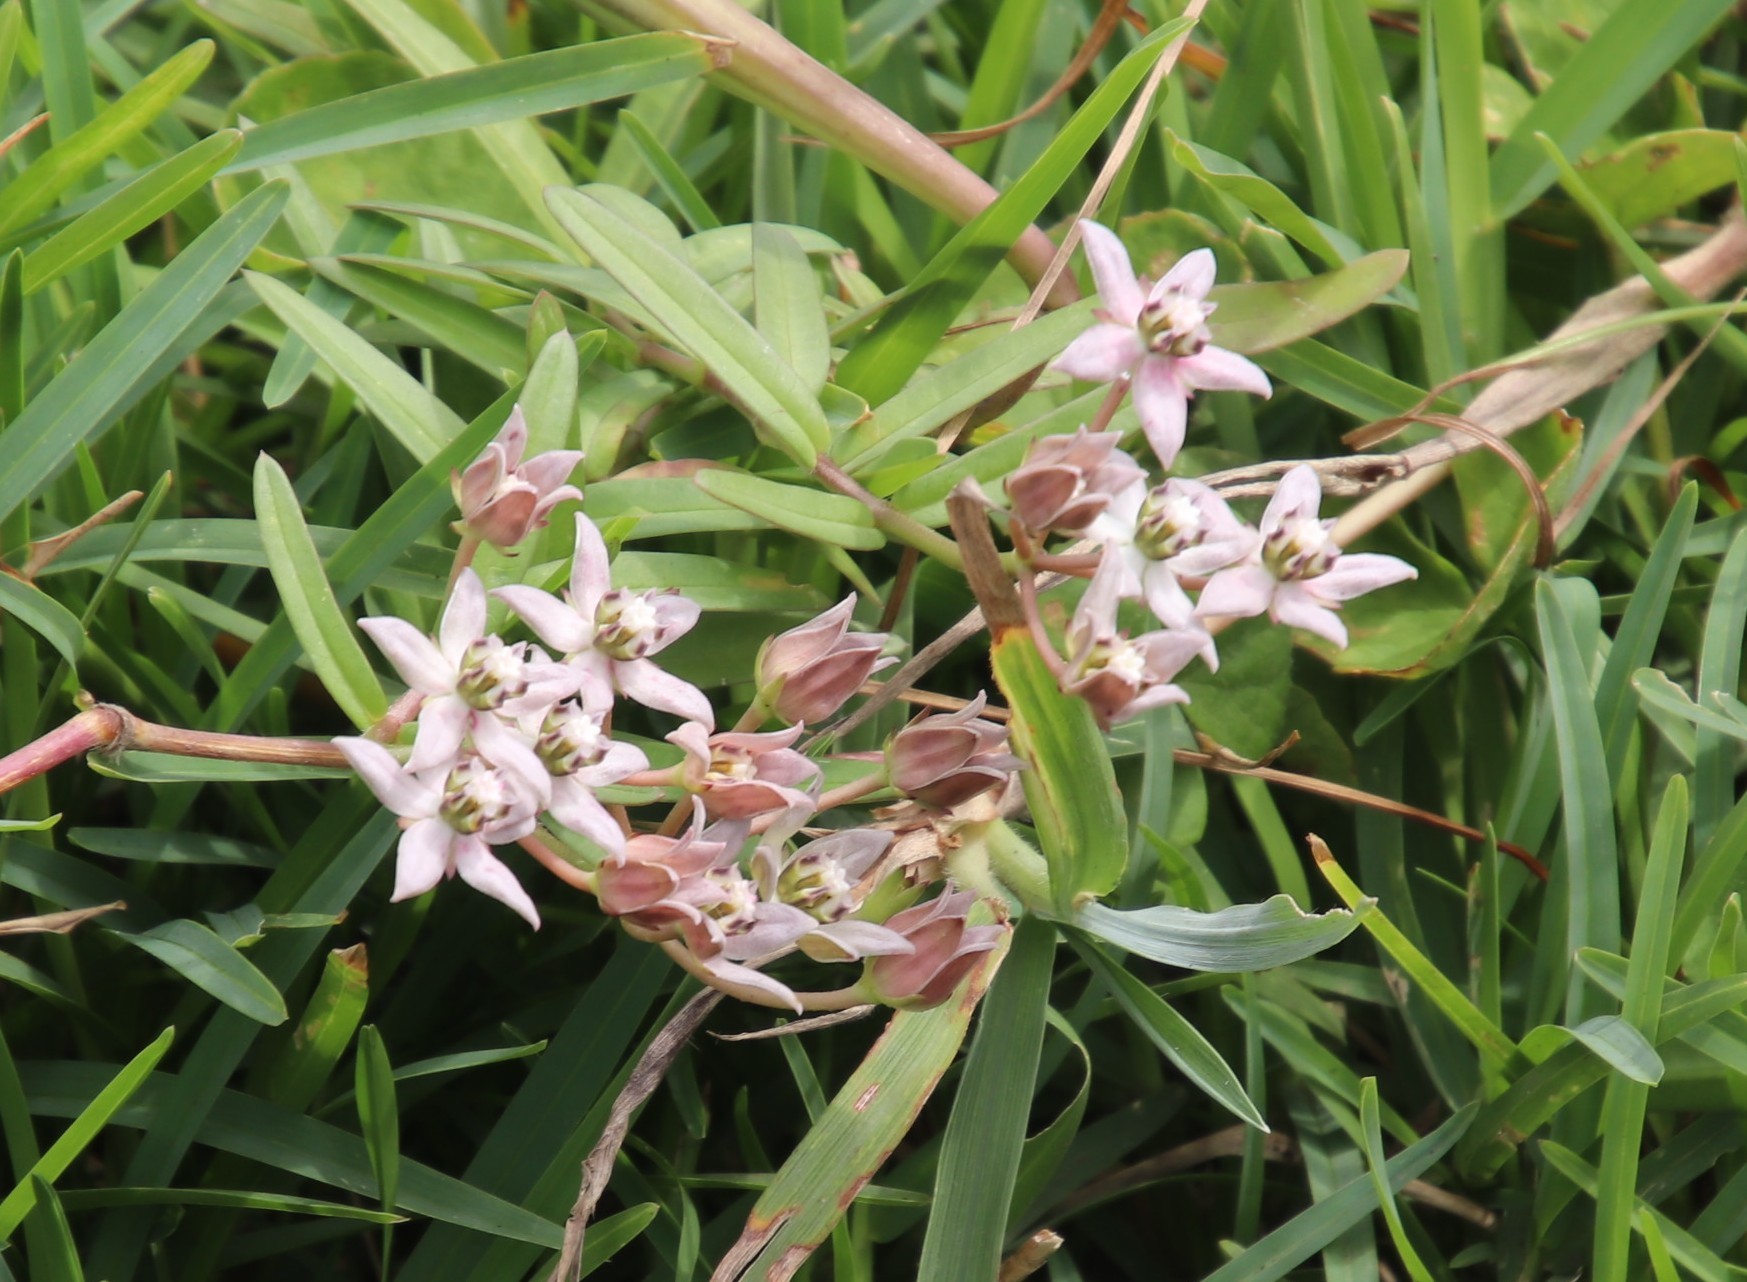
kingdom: Plantae
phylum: Tracheophyta
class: Magnoliopsida
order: Gentianales
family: Apocynaceae
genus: Asclepias
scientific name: Asclepias brevicuspis
